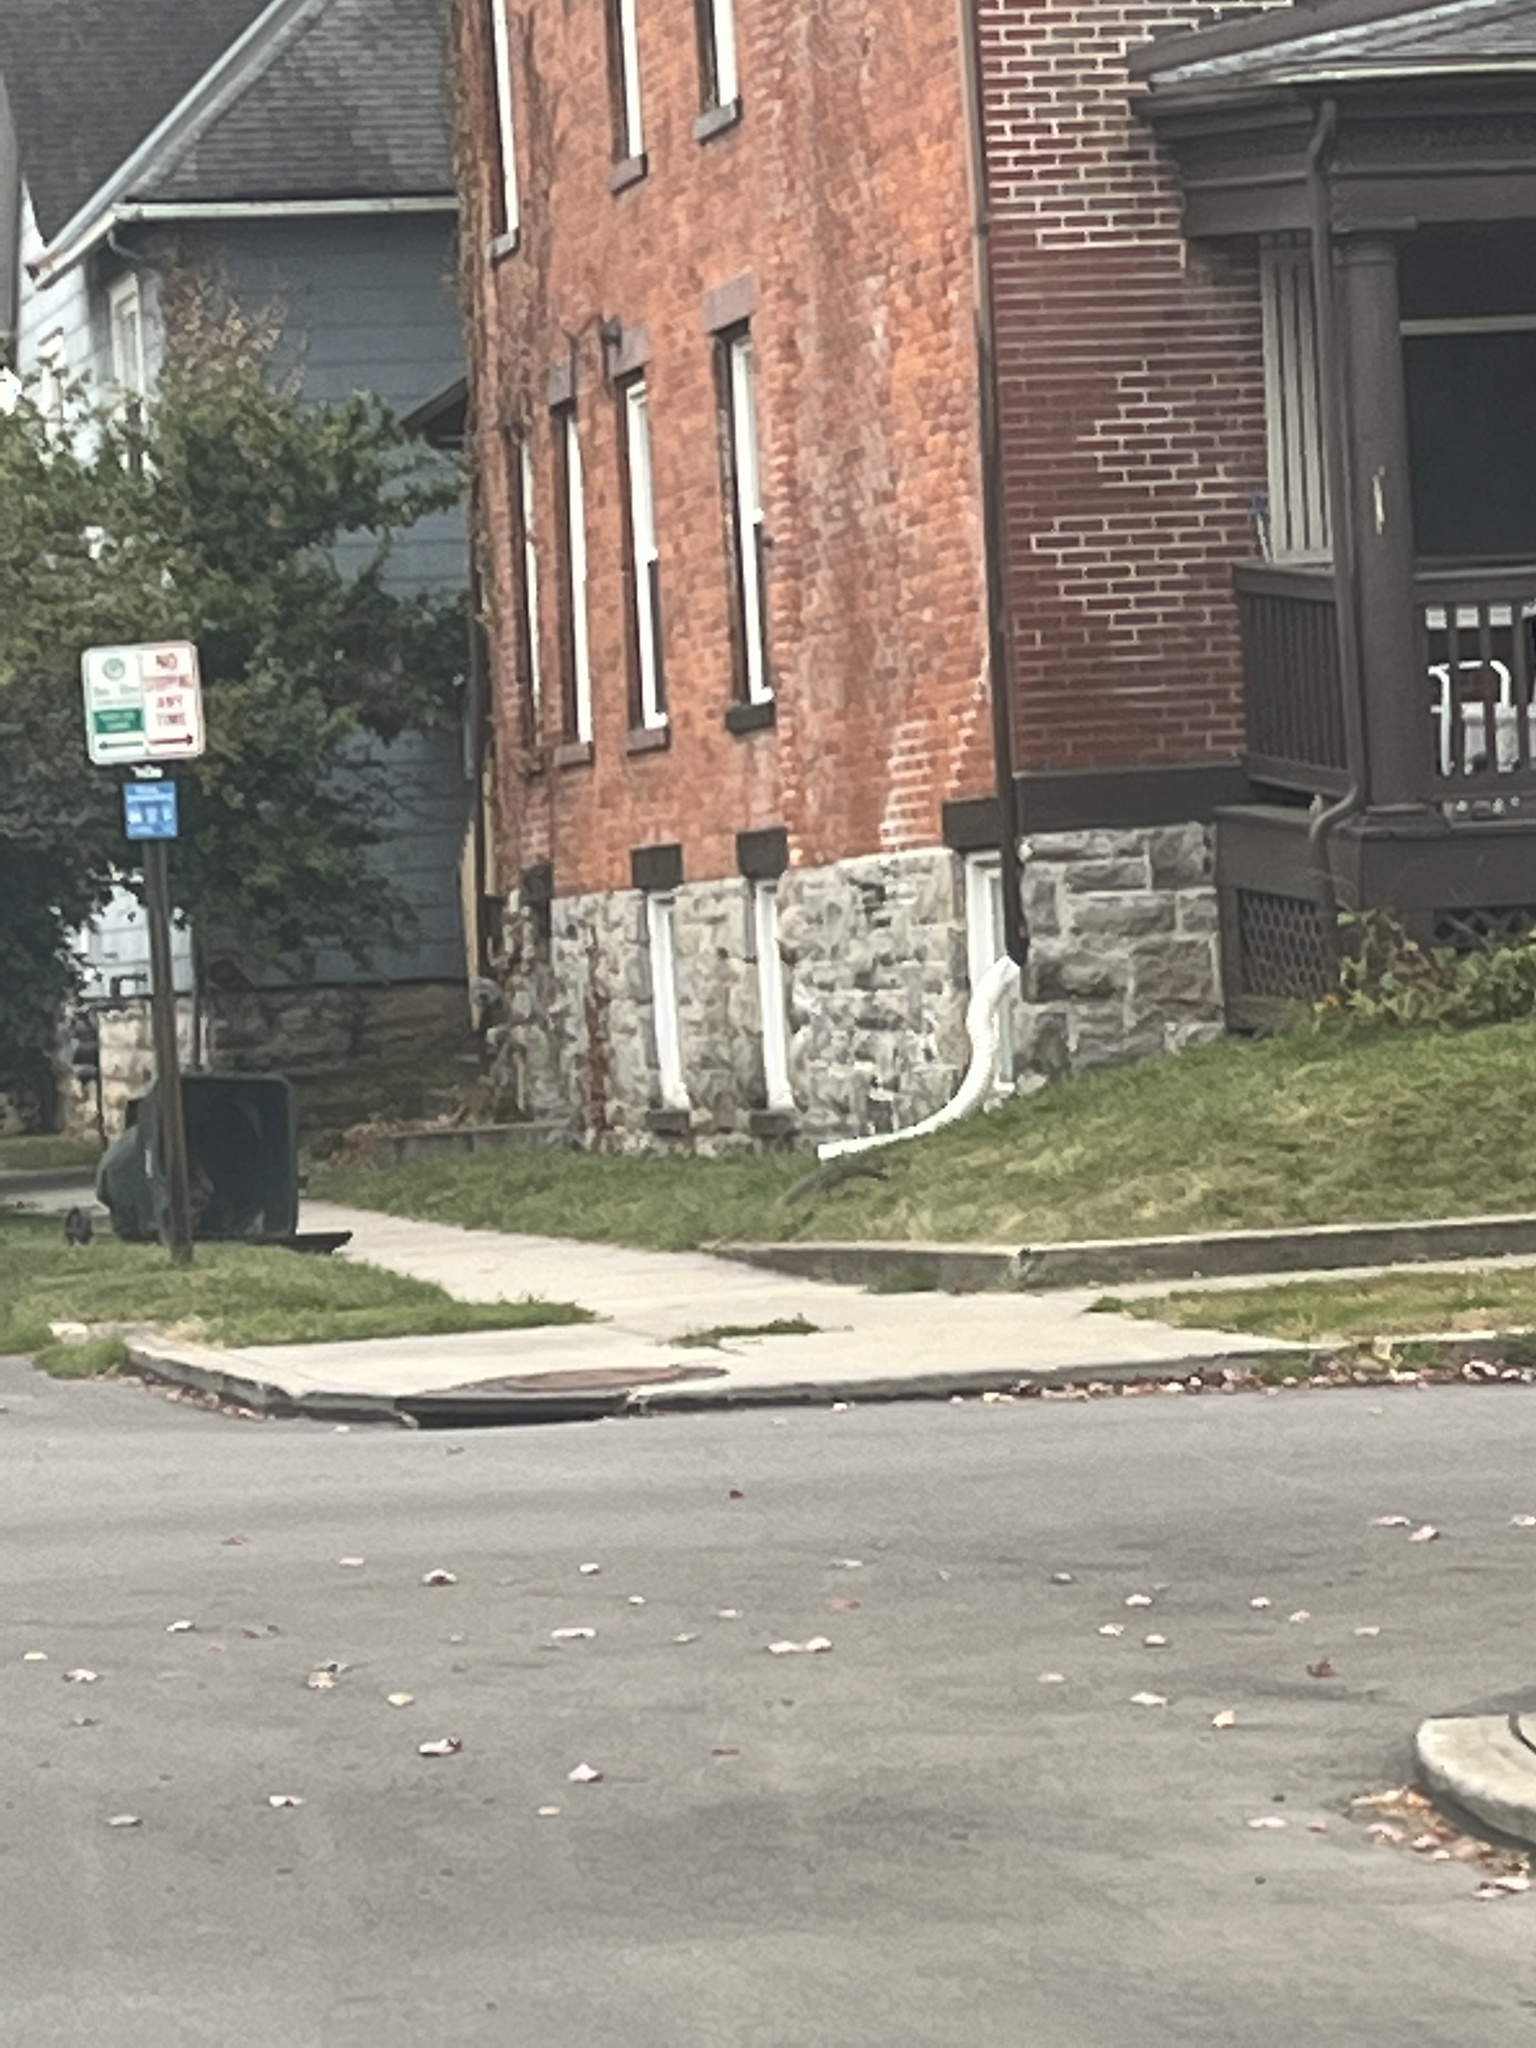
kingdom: Animalia
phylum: Chordata
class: Mammalia
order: Rodentia
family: Sciuridae
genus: Sciurus
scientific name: Sciurus carolinensis
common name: Eastern gray squirrel
